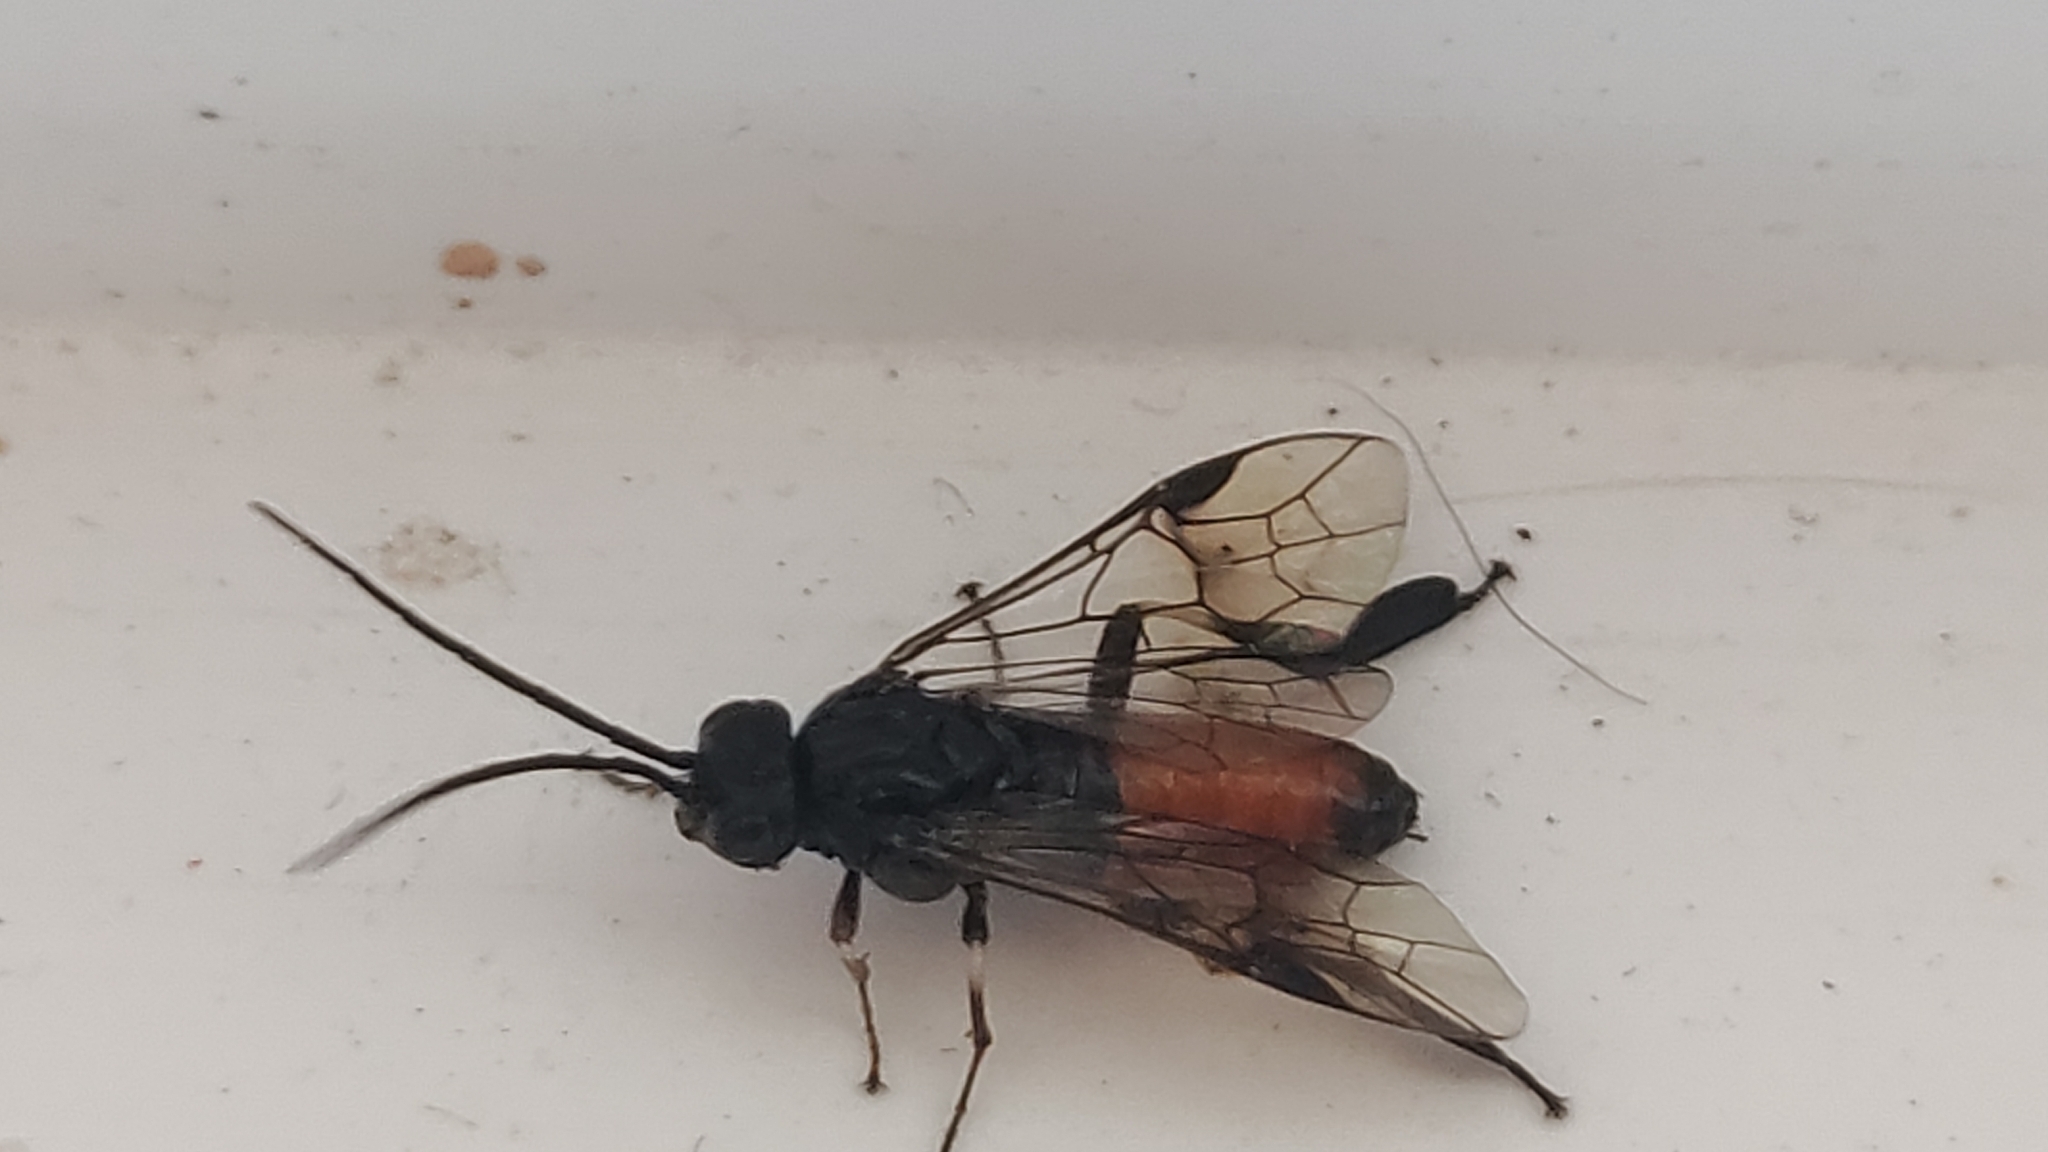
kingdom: Animalia
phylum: Arthropoda
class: Insecta
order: Hymenoptera
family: Tenthredinidae
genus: Craesus
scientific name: Craesus septentrionalis
